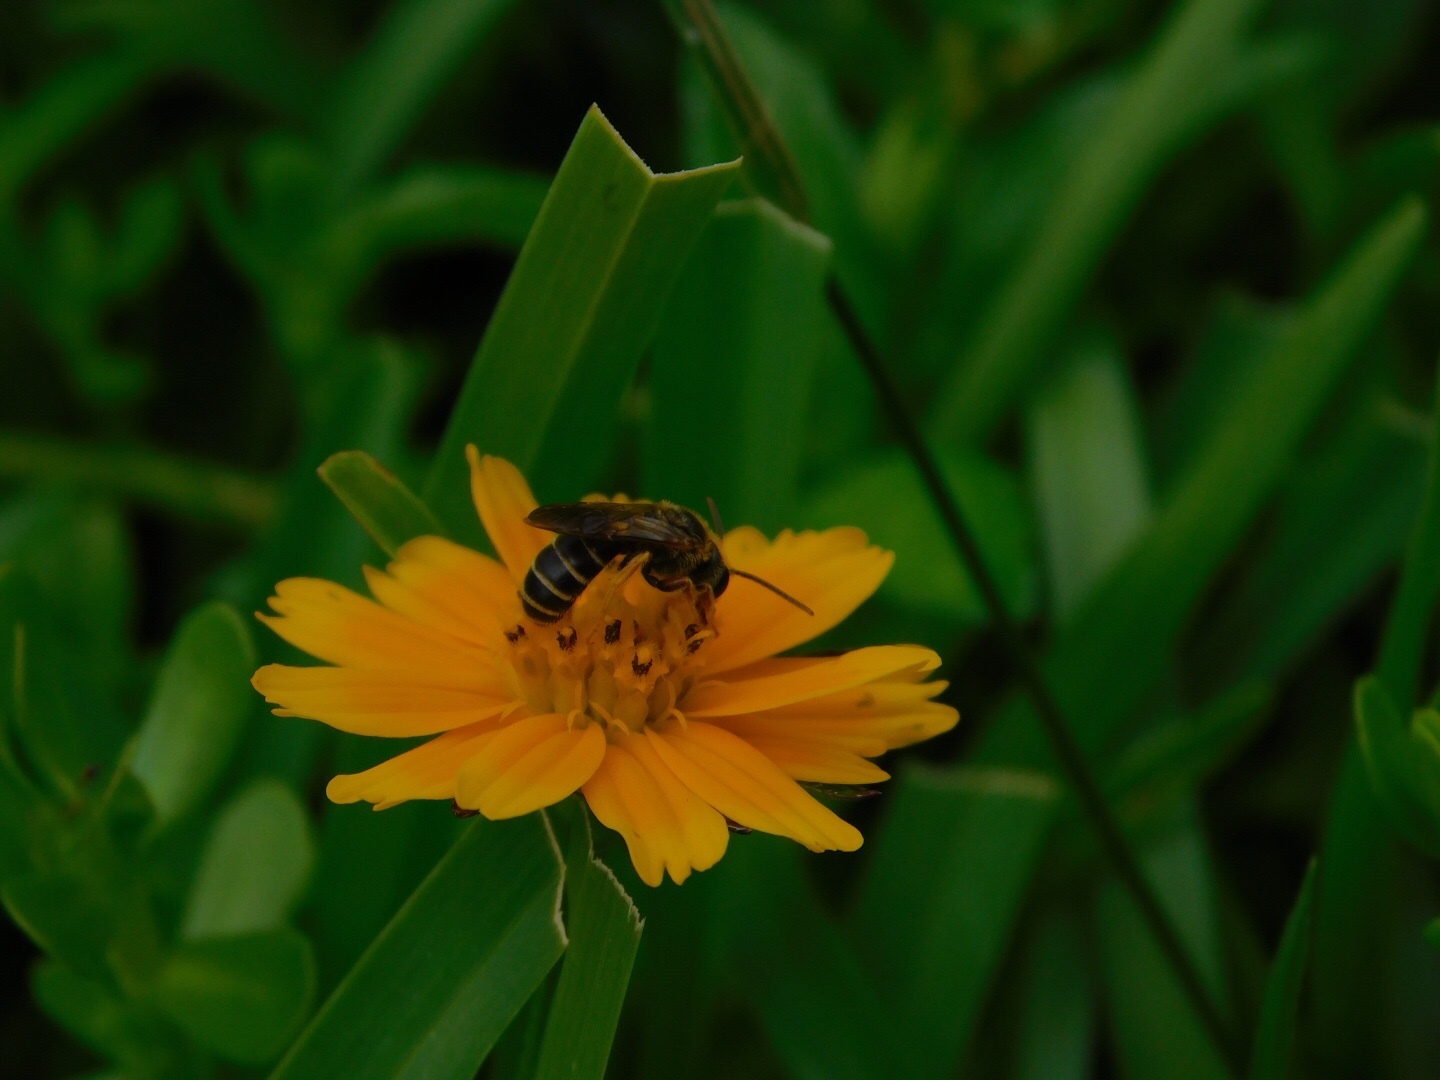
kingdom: Animalia
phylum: Arthropoda
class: Insecta
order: Hymenoptera
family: Halictidae
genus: Halictus
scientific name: Halictus poeyi
